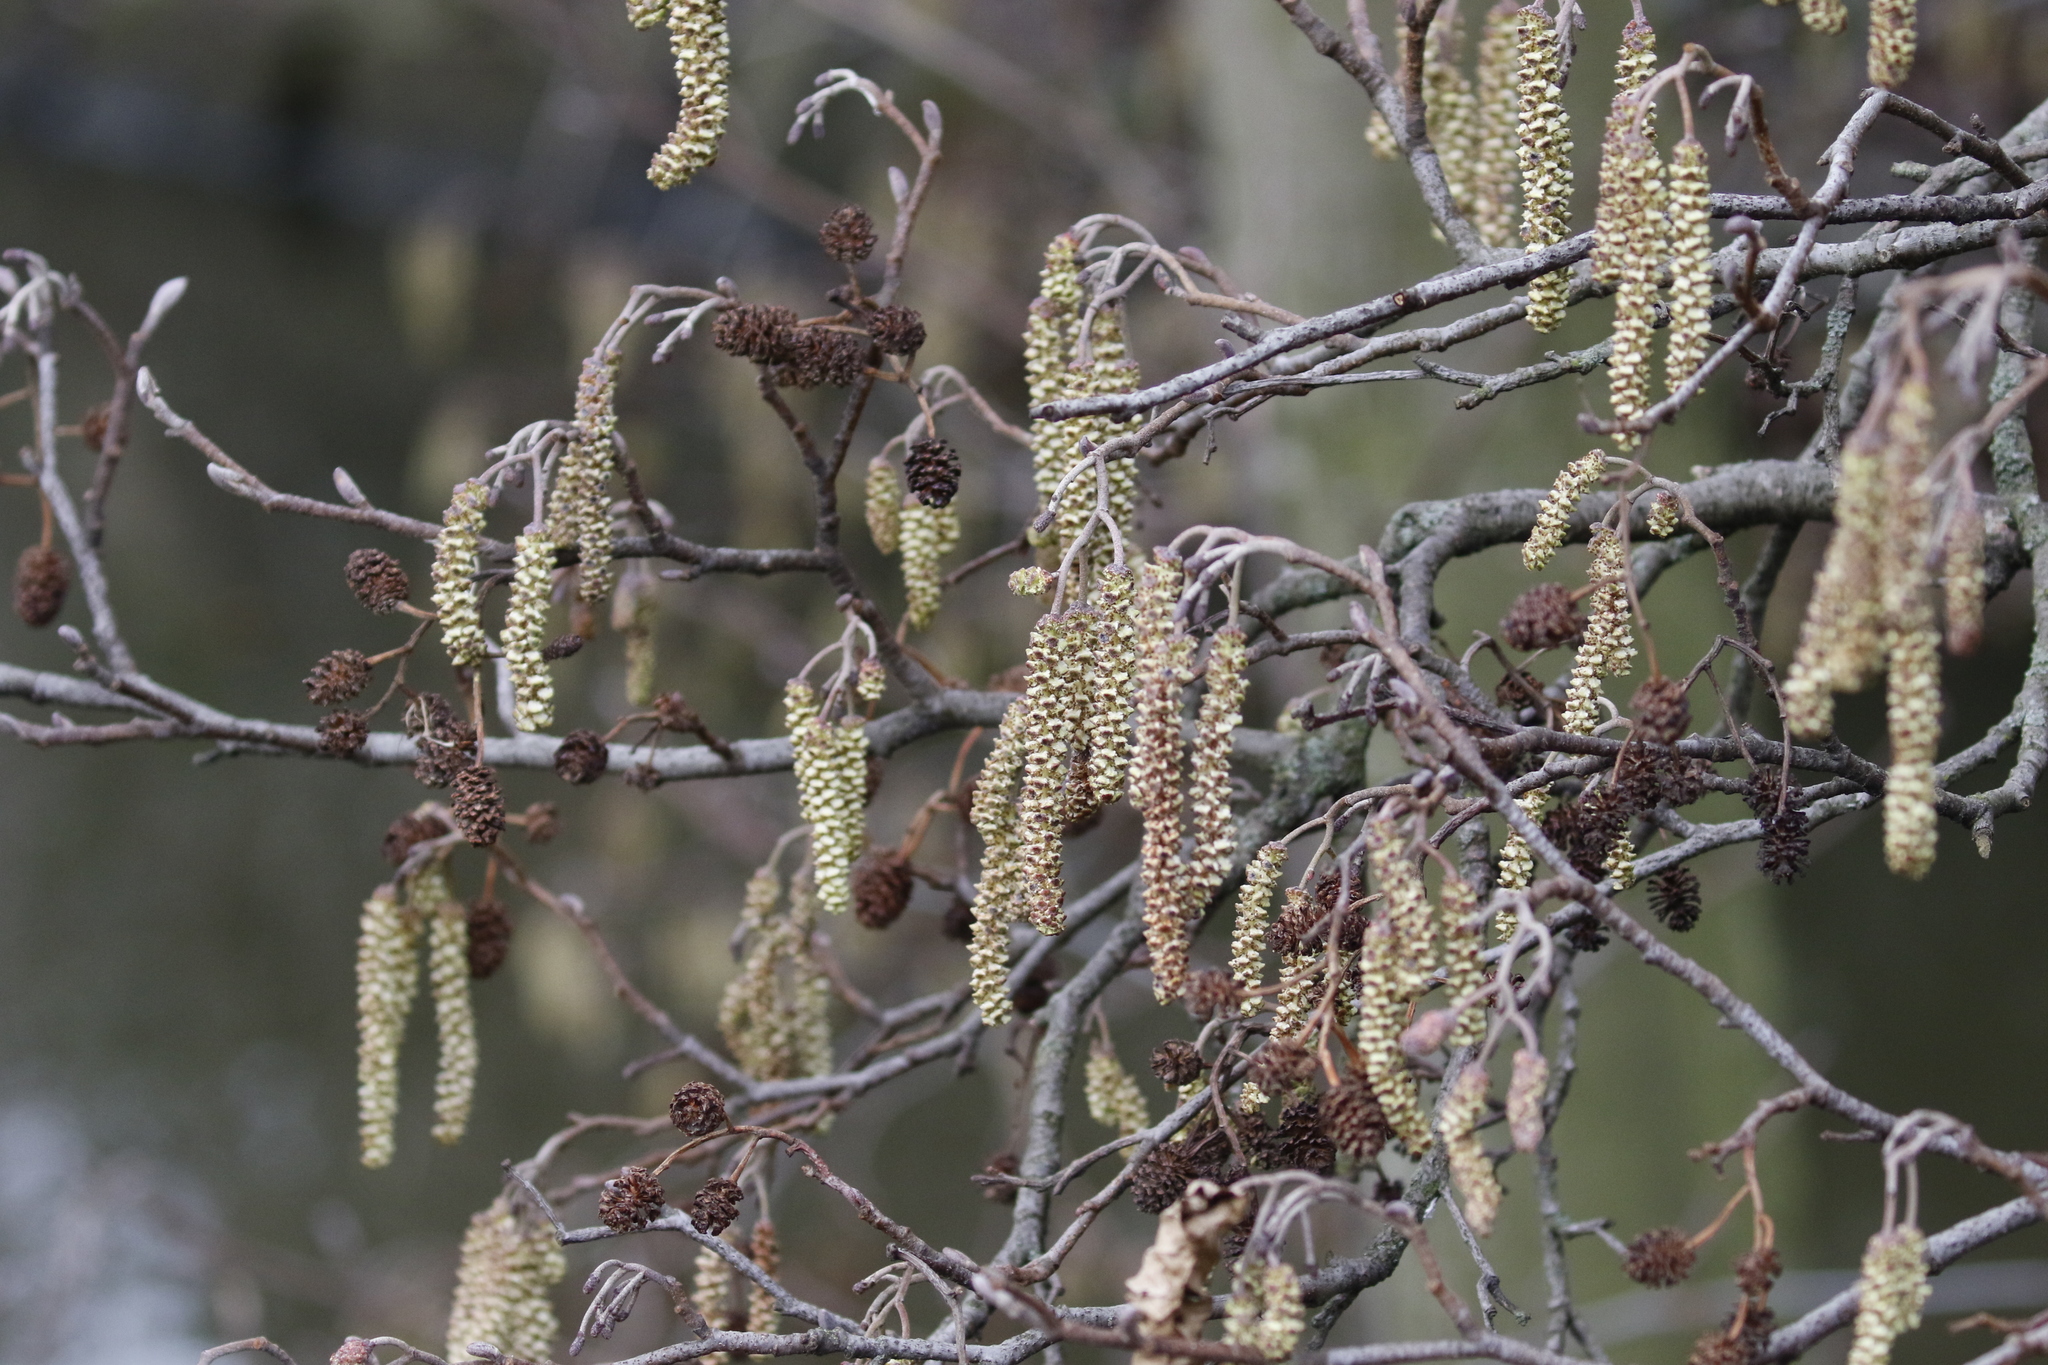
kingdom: Plantae
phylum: Tracheophyta
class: Magnoliopsida
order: Fagales
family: Betulaceae
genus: Alnus
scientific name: Alnus glutinosa
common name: Black alder
